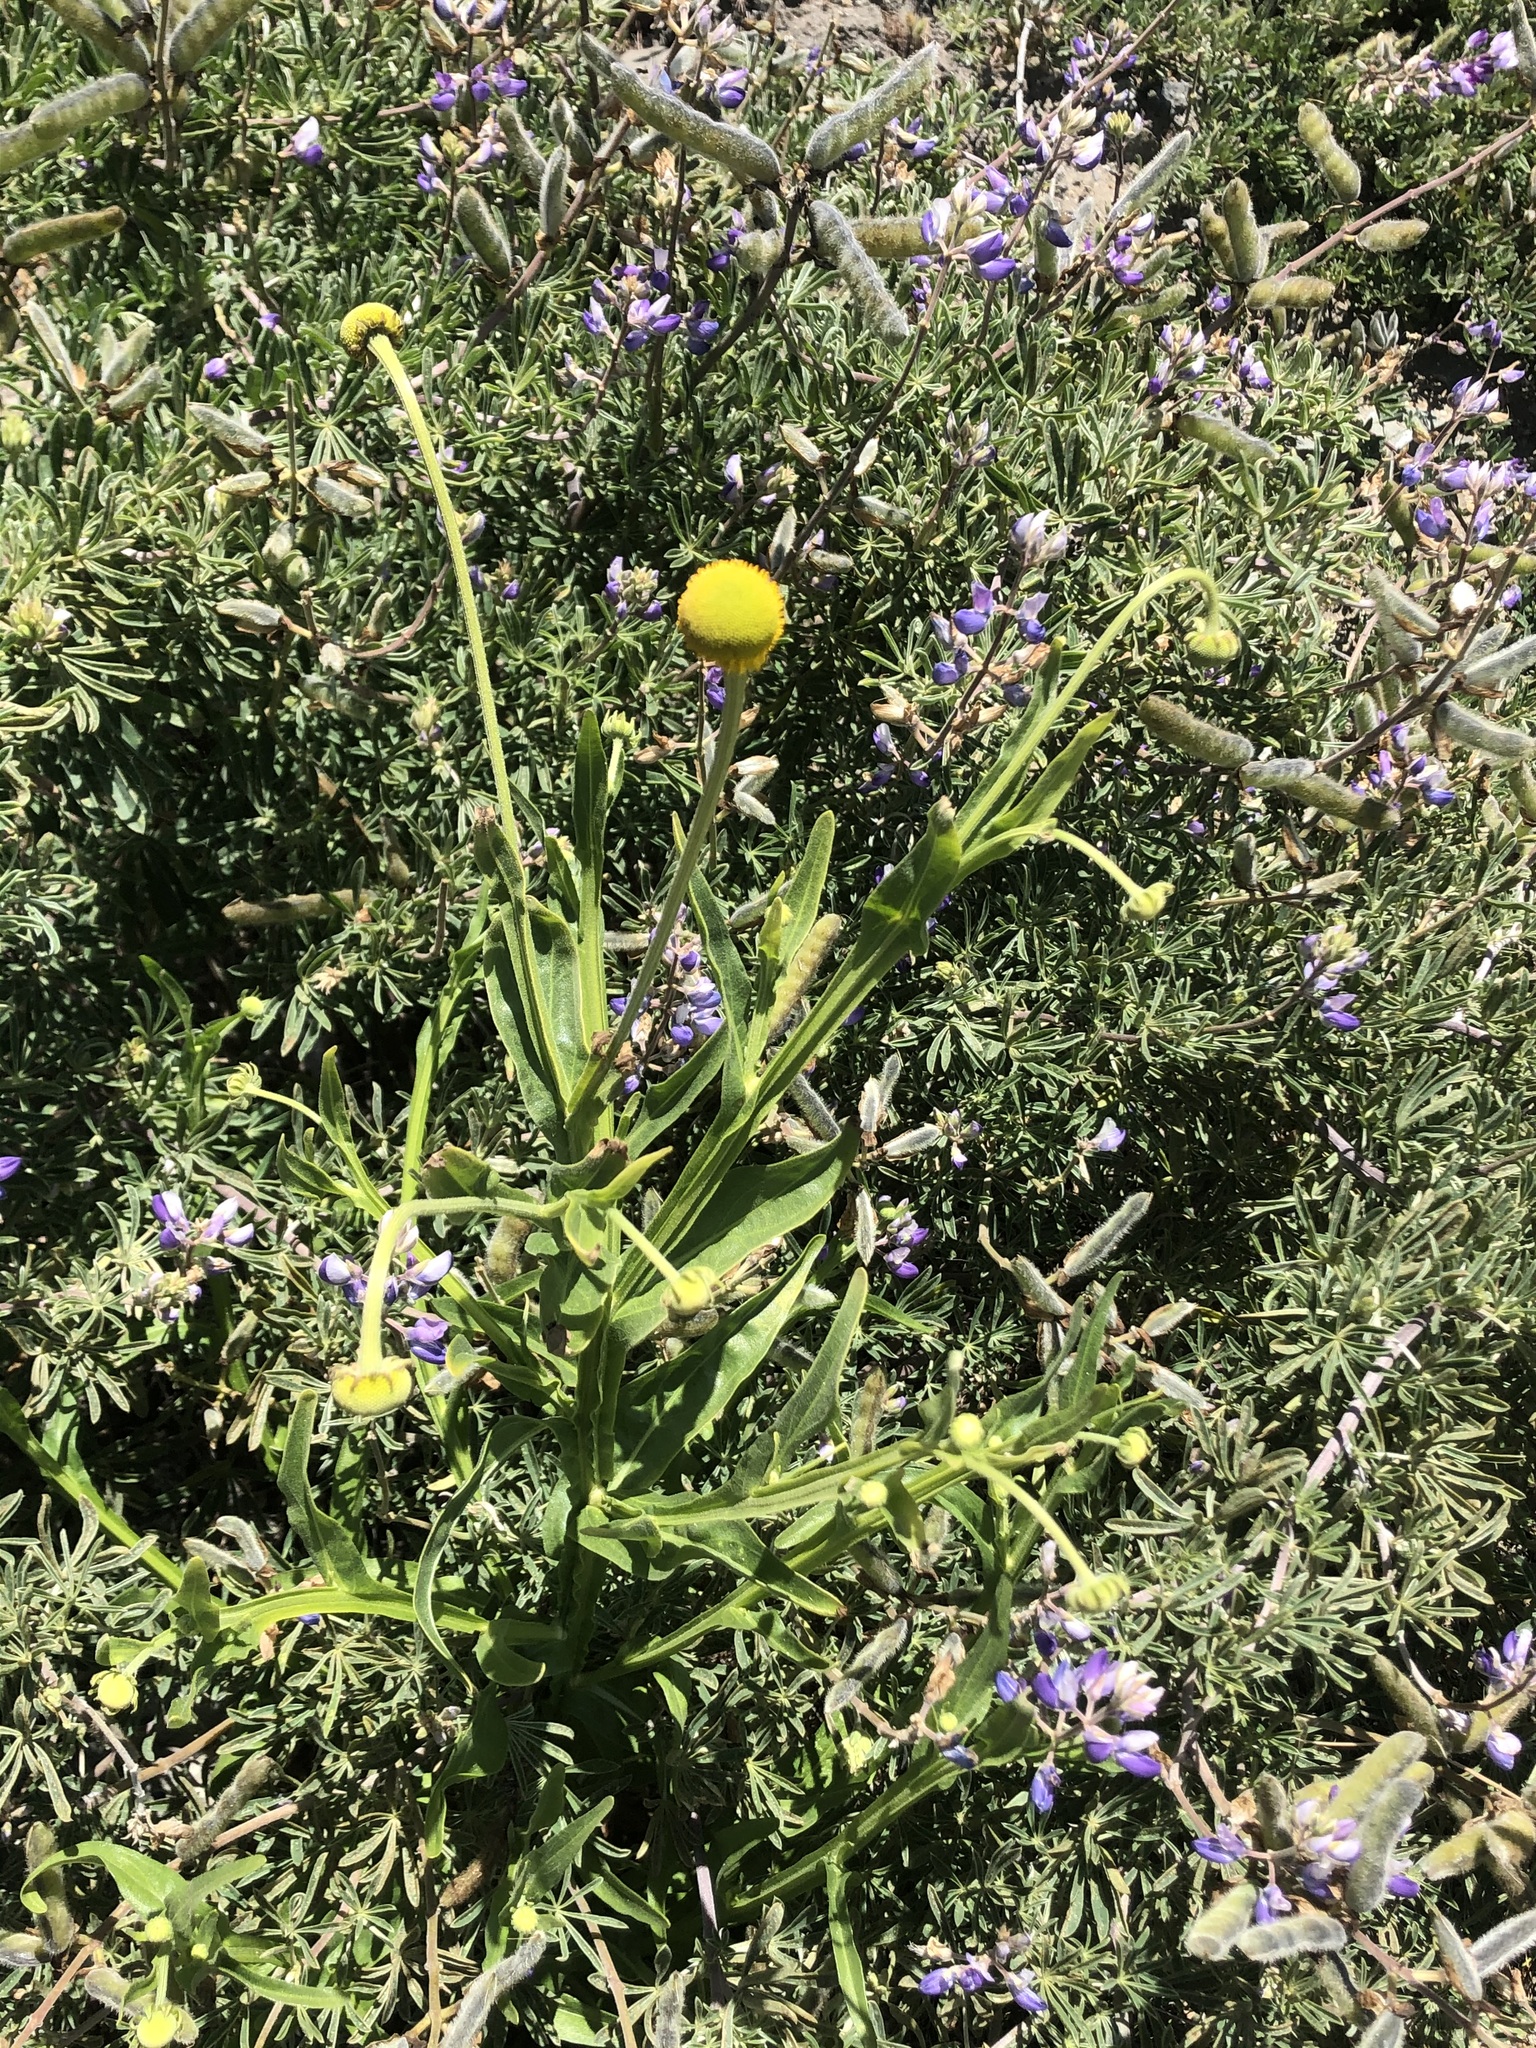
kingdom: Plantae
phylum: Tracheophyta
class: Magnoliopsida
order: Asterales
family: Asteraceae
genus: Helenium
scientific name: Helenium puberulum
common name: Sneezewort
